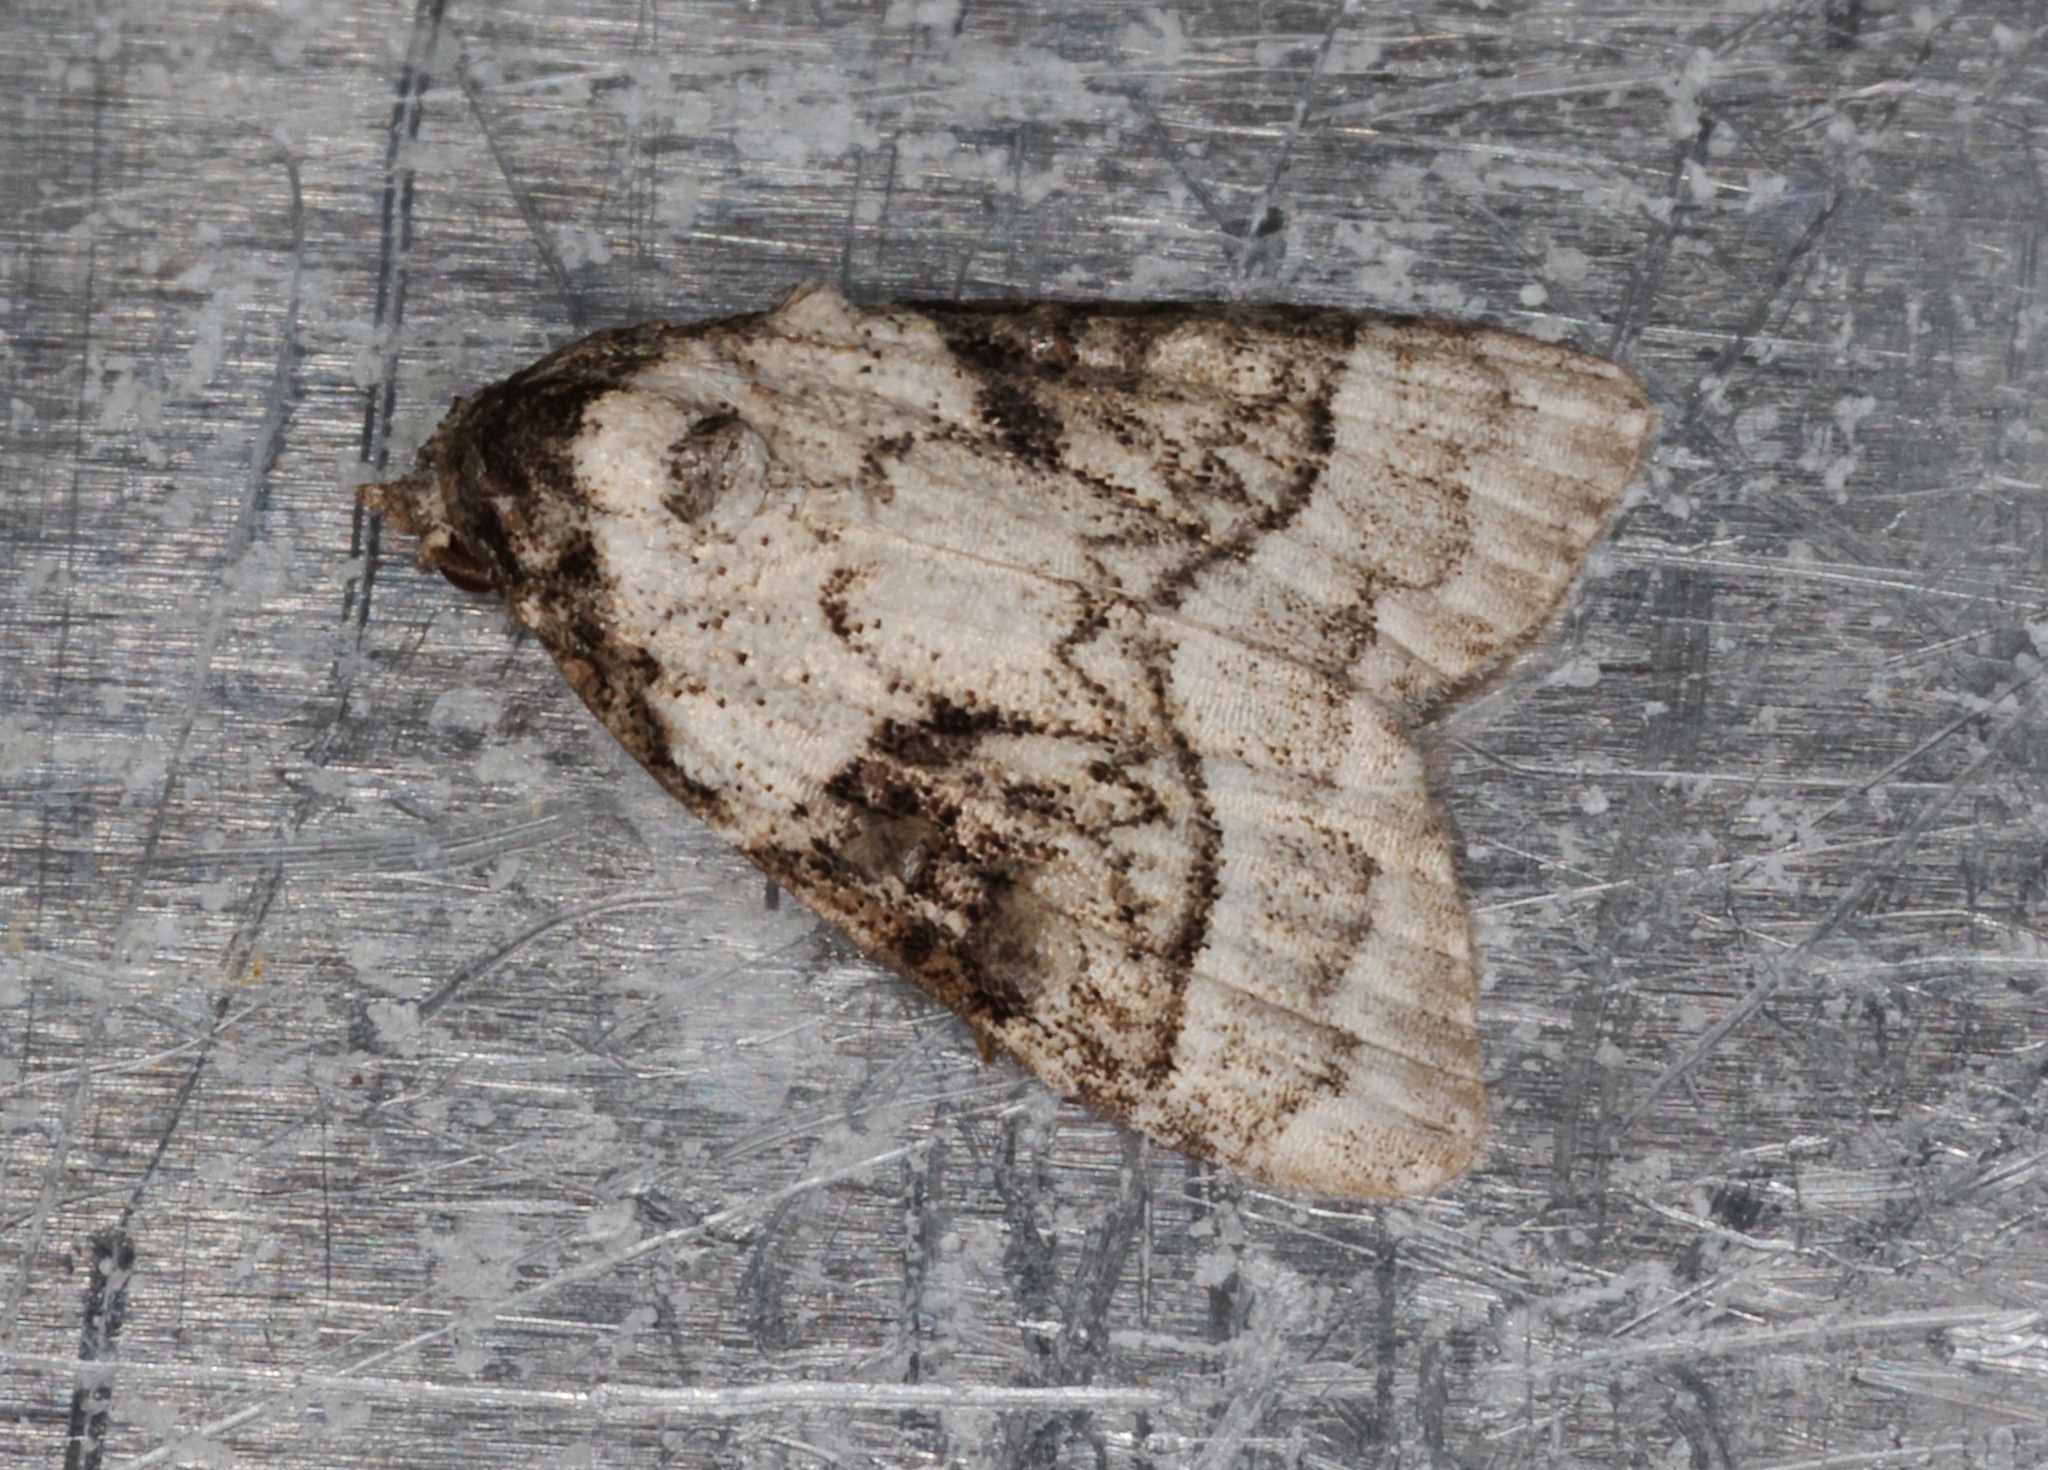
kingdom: Animalia
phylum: Arthropoda
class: Insecta
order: Lepidoptera
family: Nolidae
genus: Meganola
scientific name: Meganola triangulalis
